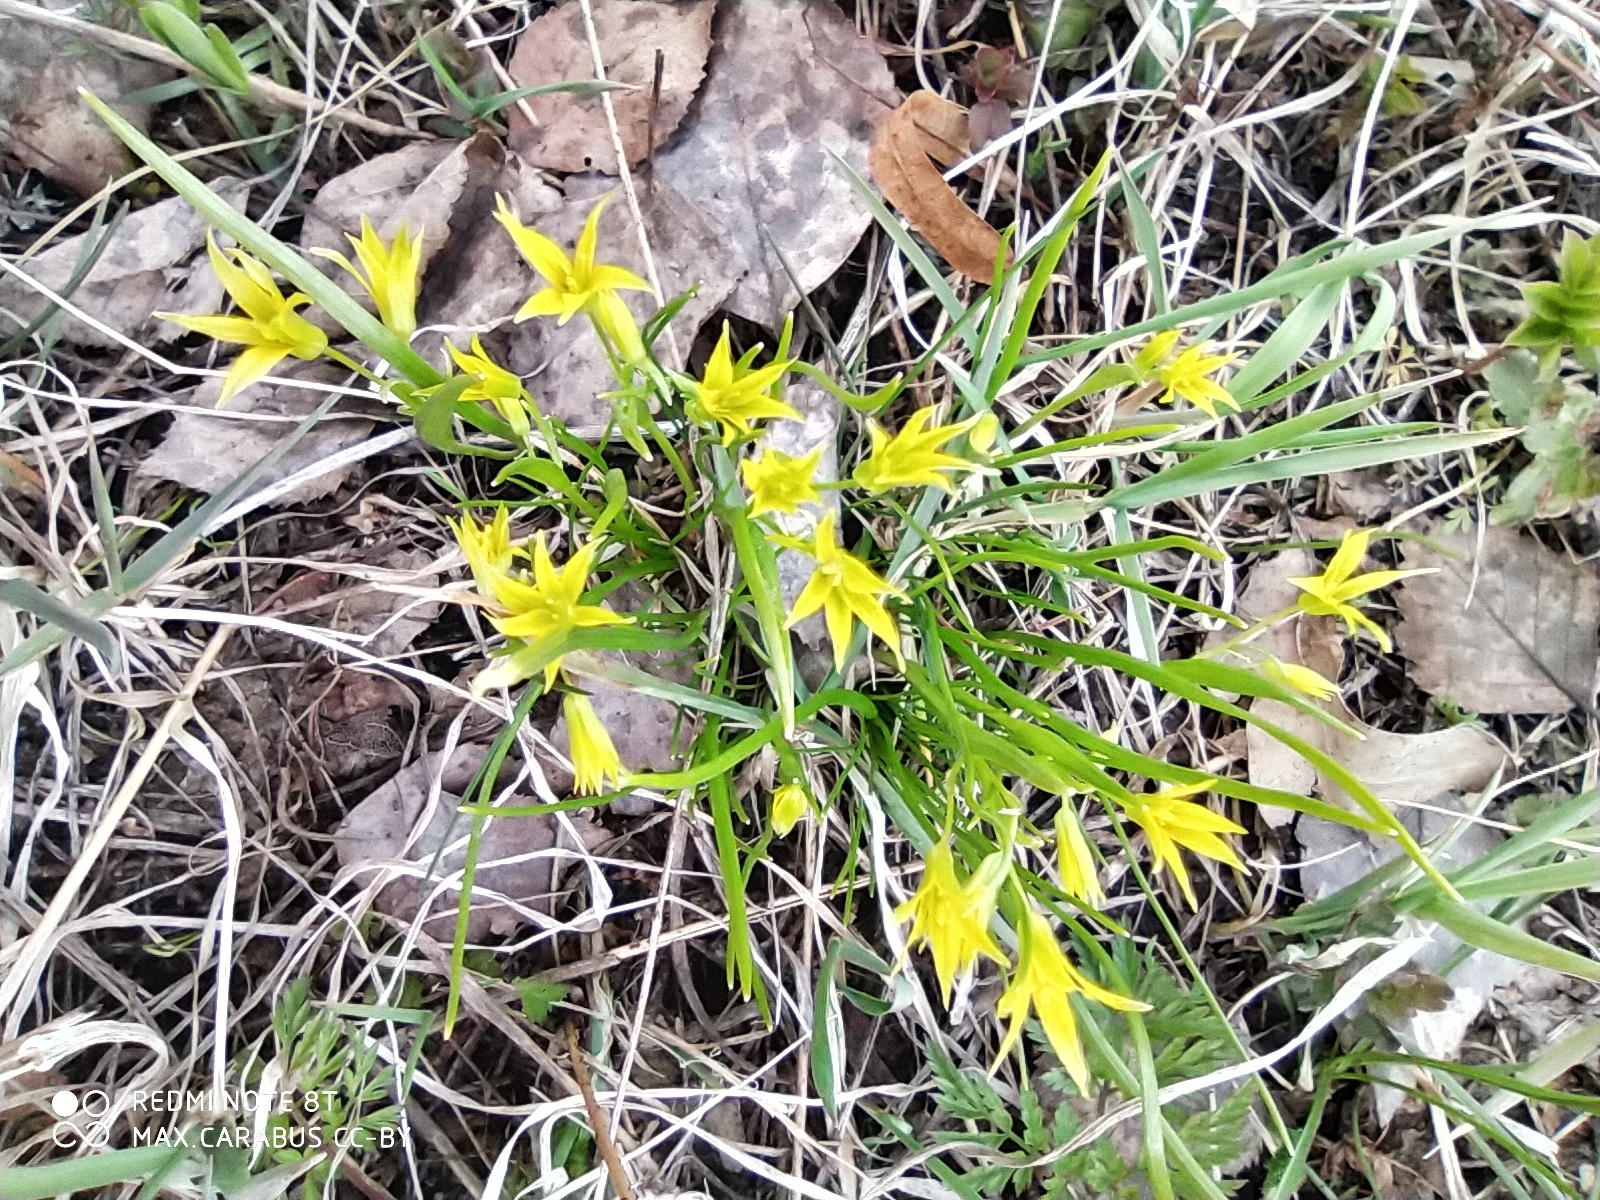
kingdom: Plantae
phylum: Tracheophyta
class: Liliopsida
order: Liliales
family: Liliaceae
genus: Gagea
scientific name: Gagea minima
